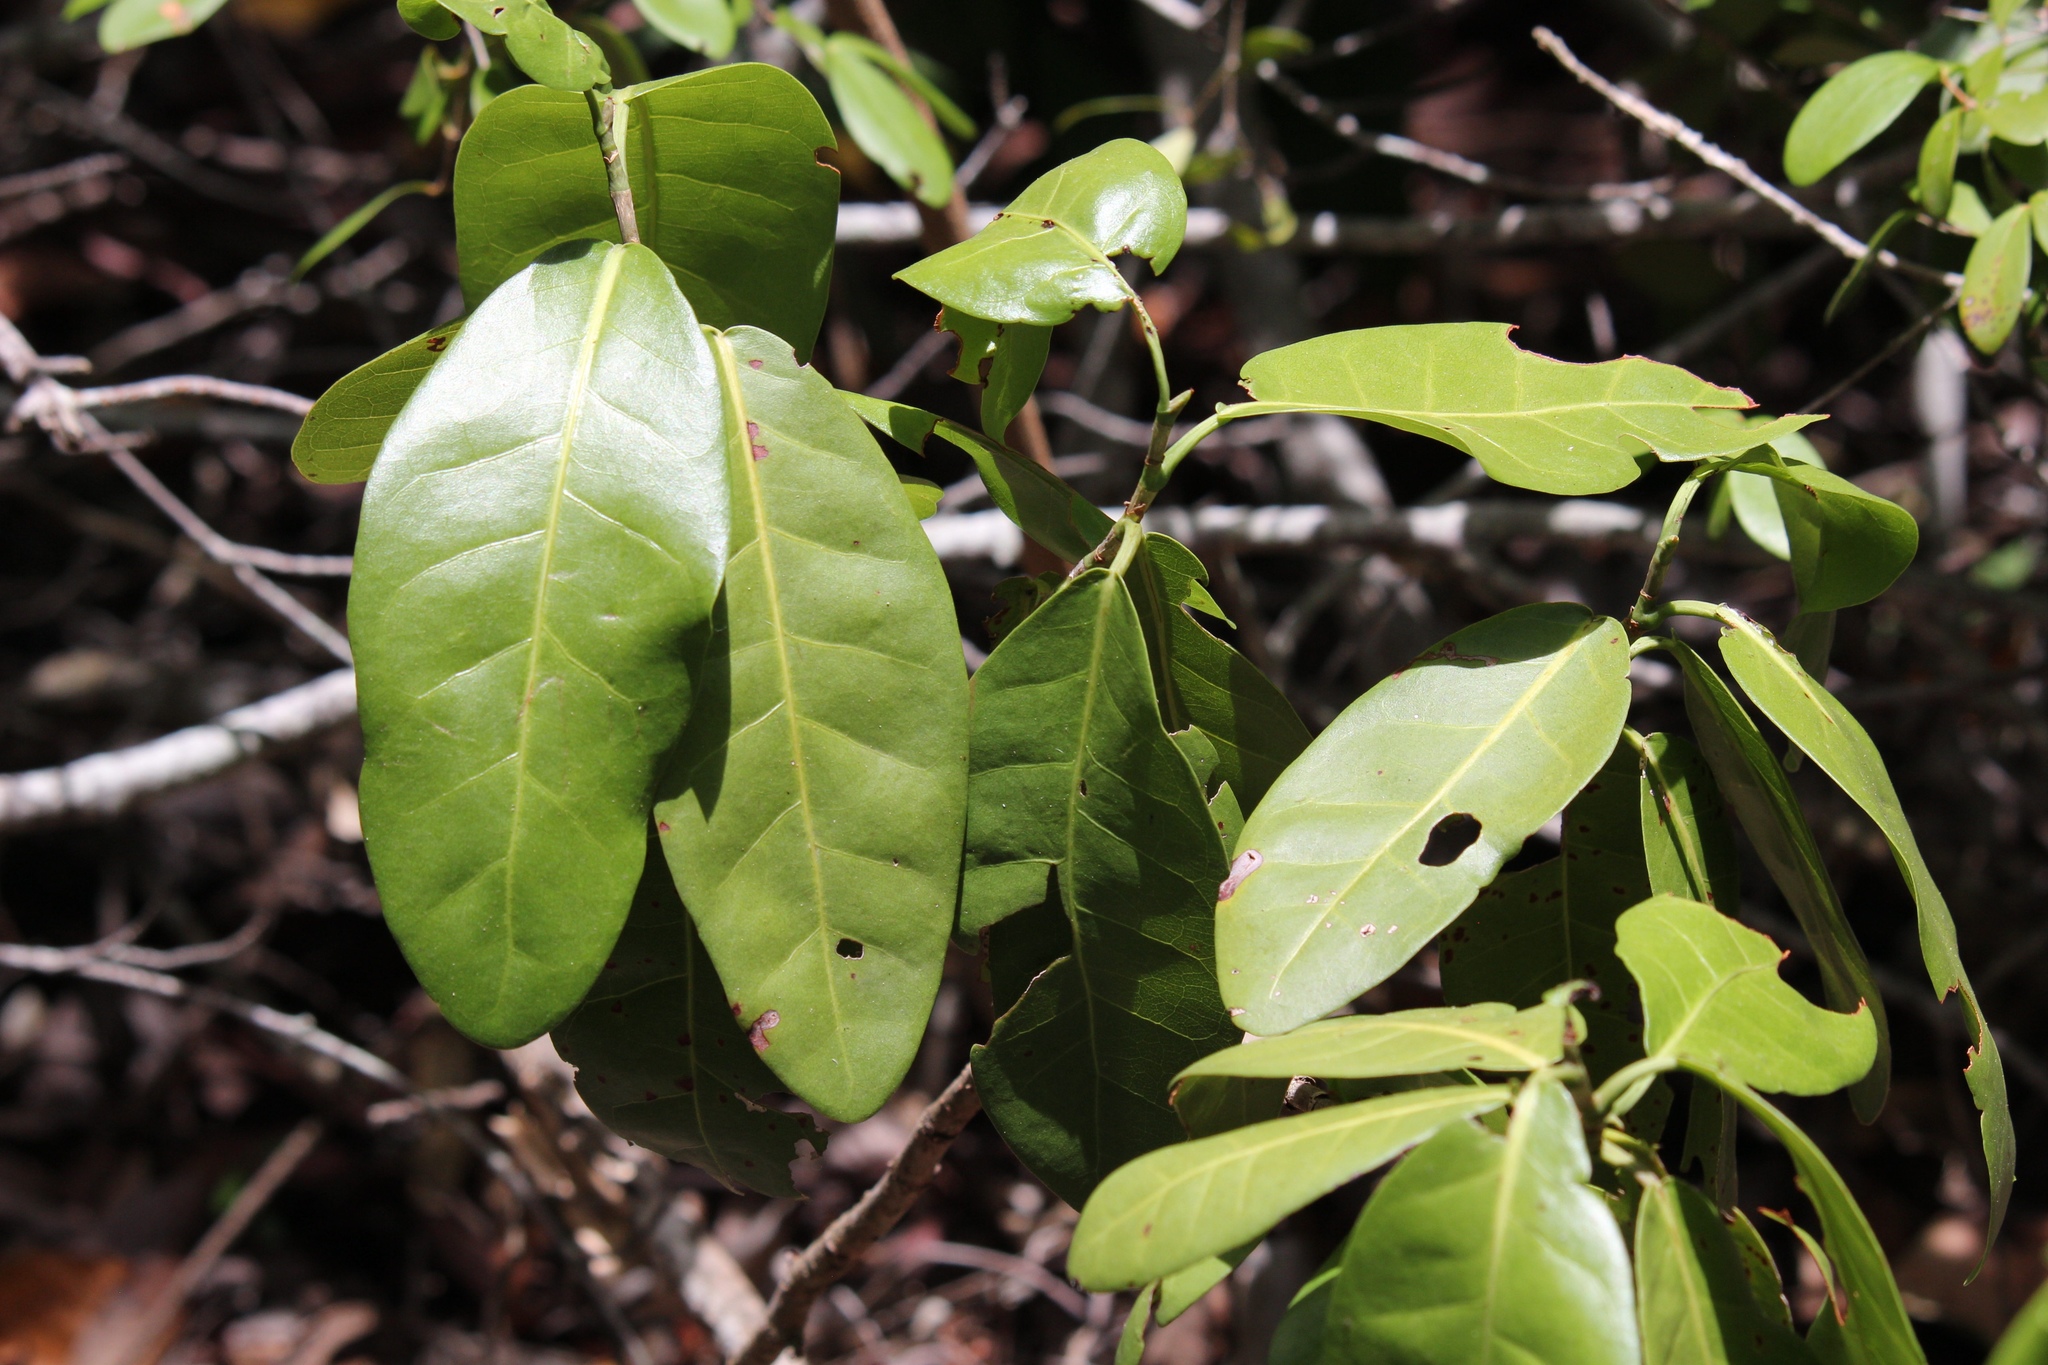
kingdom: Plantae
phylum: Tracheophyta
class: Magnoliopsida
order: Caryophyllales
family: Polygonaceae
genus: Coccoloba
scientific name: Coccoloba diversifolia
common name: Pigeon-plum
